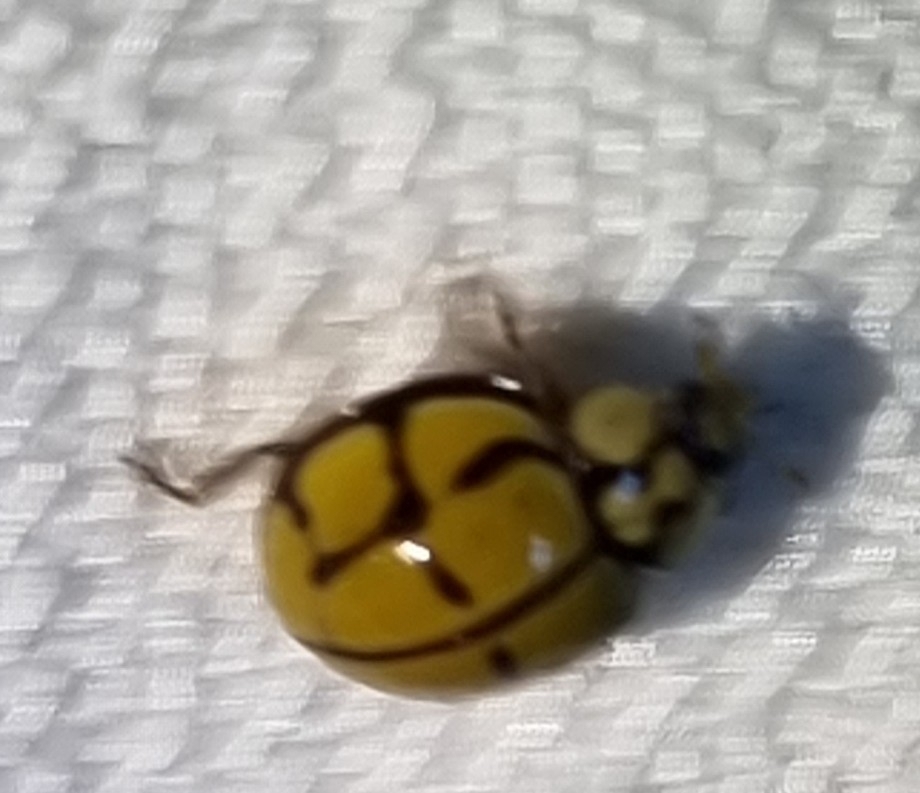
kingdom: Animalia
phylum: Arthropoda
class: Insecta
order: Coleoptera
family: Coccinellidae
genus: Harmonia
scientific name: Harmonia
